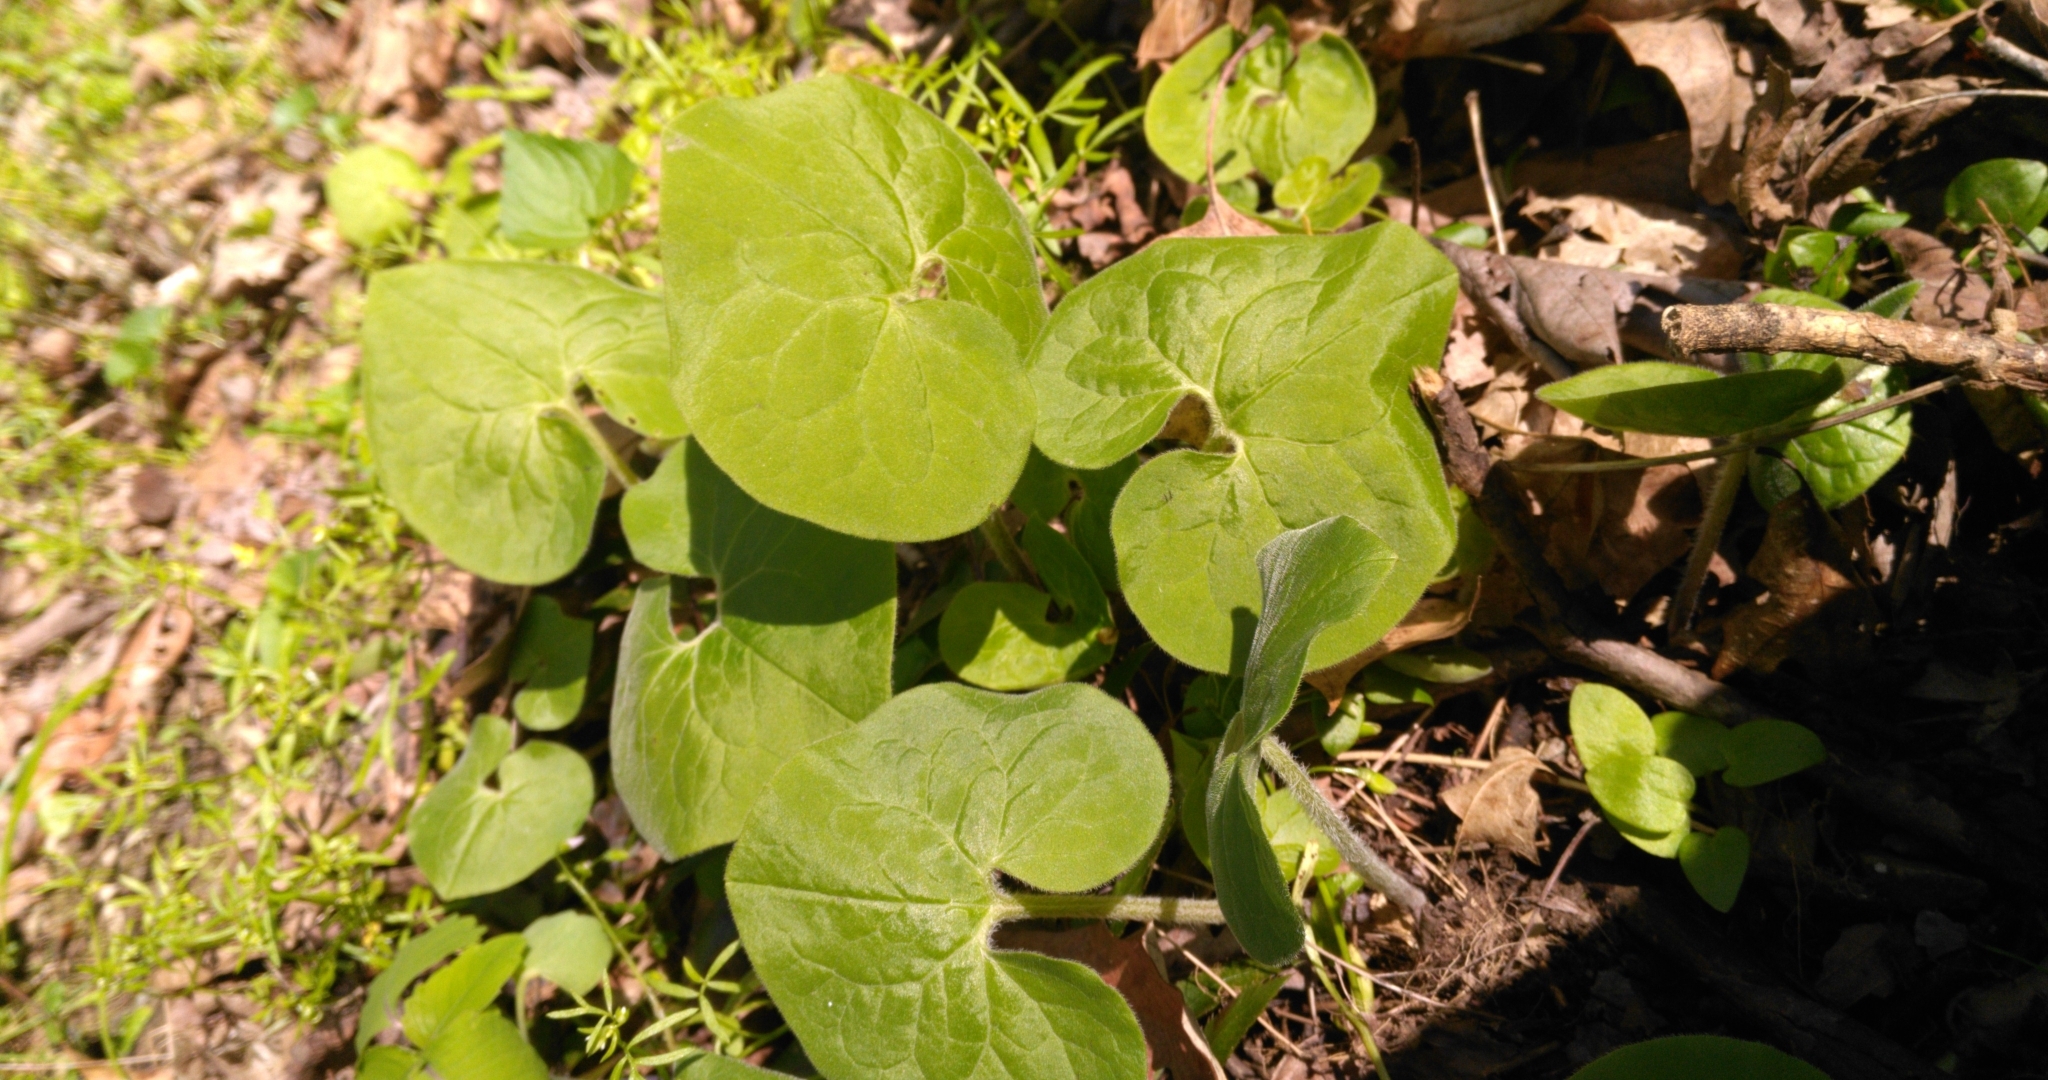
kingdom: Plantae
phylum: Tracheophyta
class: Magnoliopsida
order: Piperales
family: Aristolochiaceae
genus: Asarum
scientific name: Asarum canadense
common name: Wild ginger
